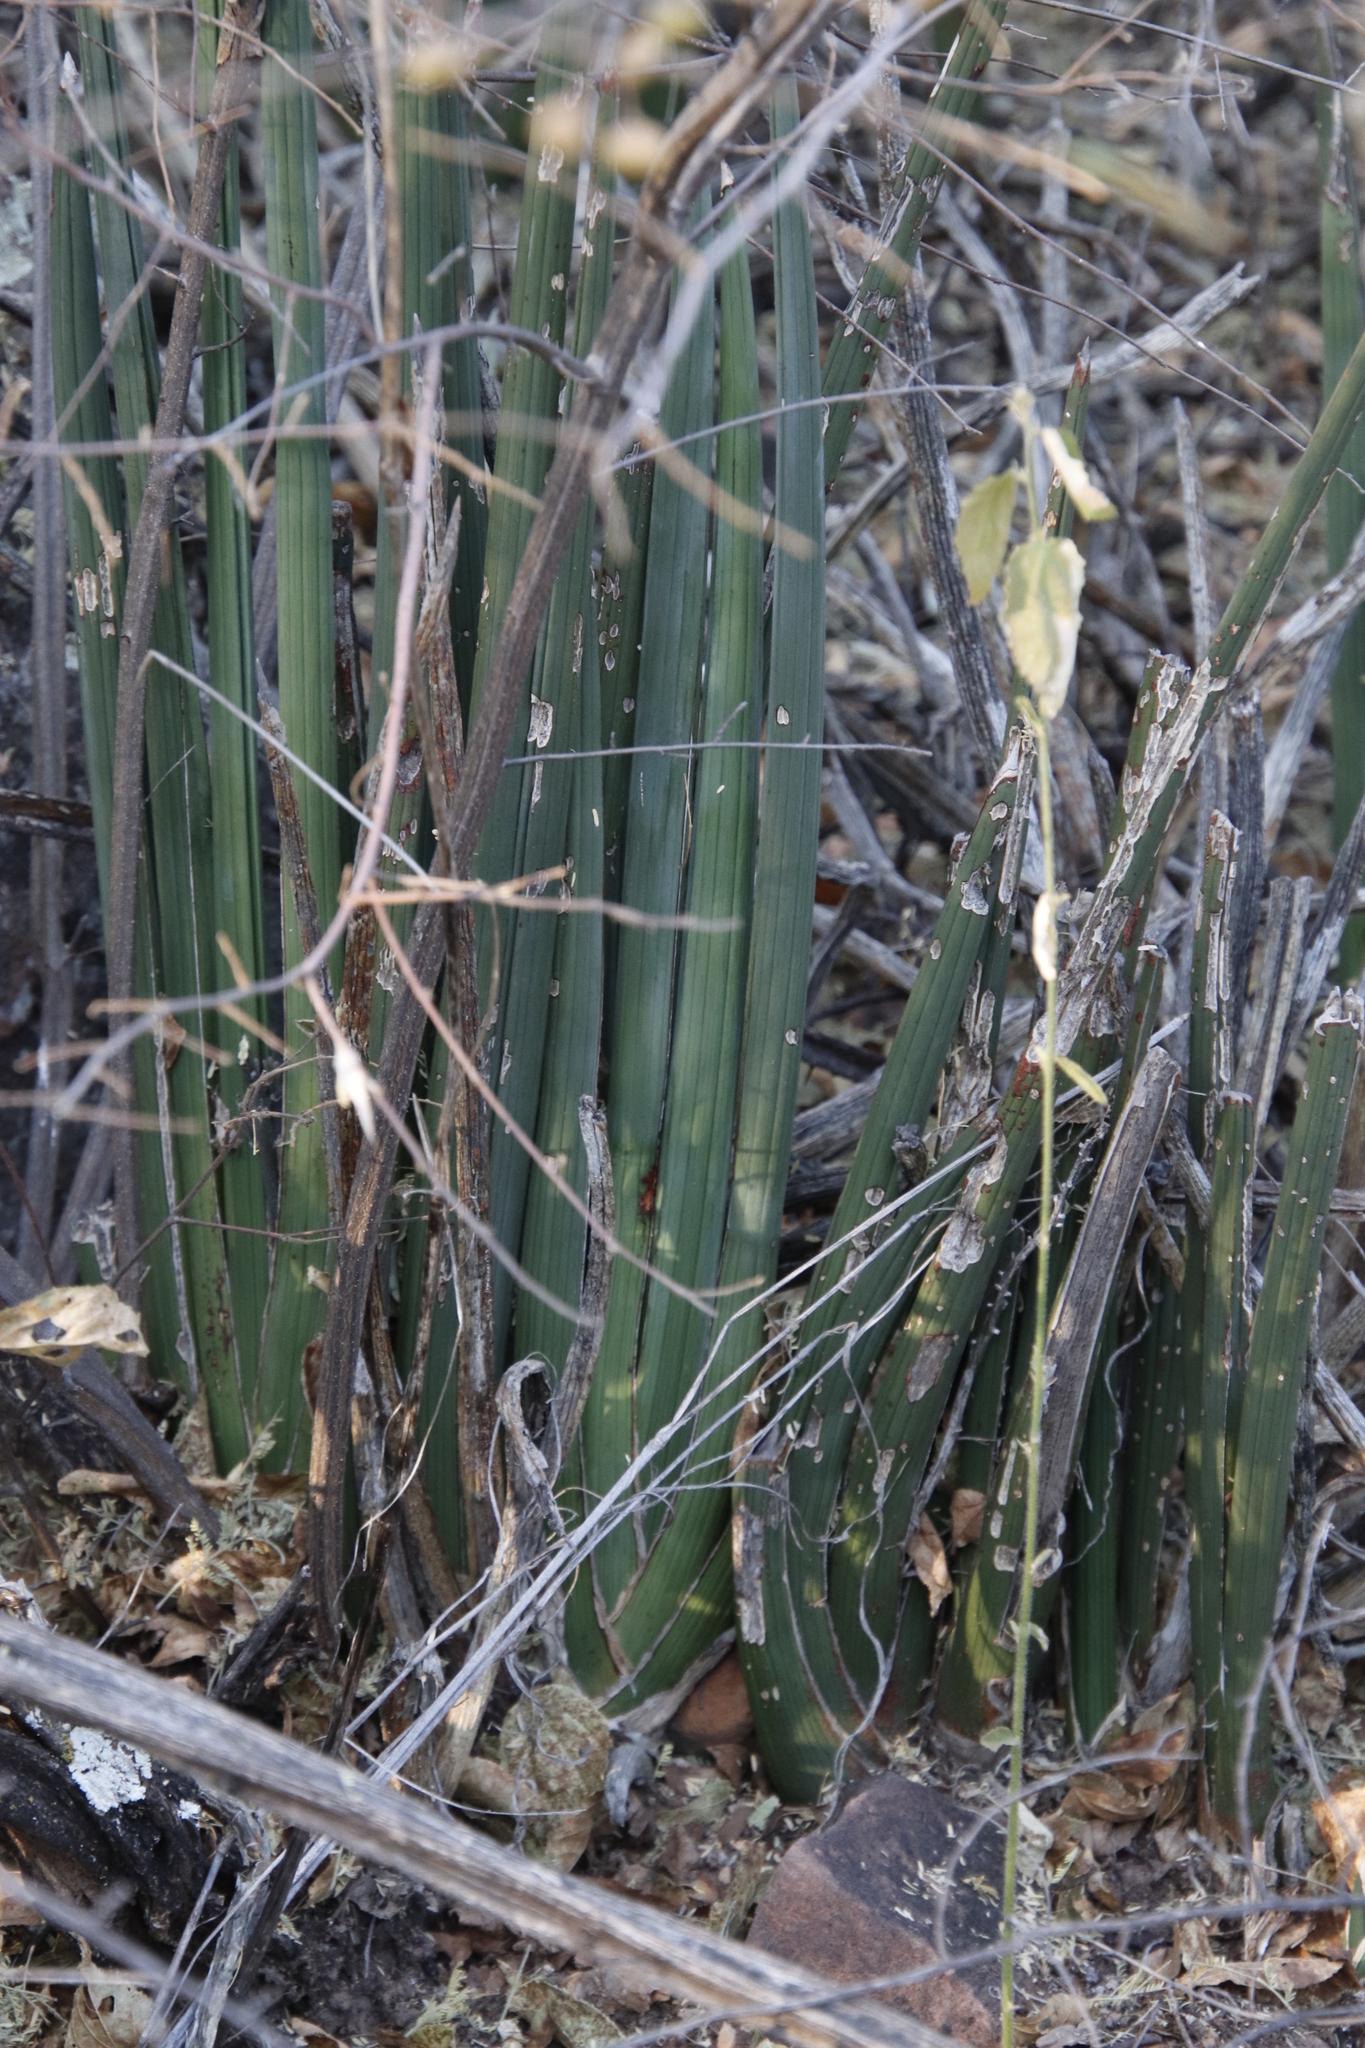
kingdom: Plantae
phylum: Tracheophyta
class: Liliopsida
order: Asparagales
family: Asparagaceae
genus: Dracaena
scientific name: Dracaena pearsonii
